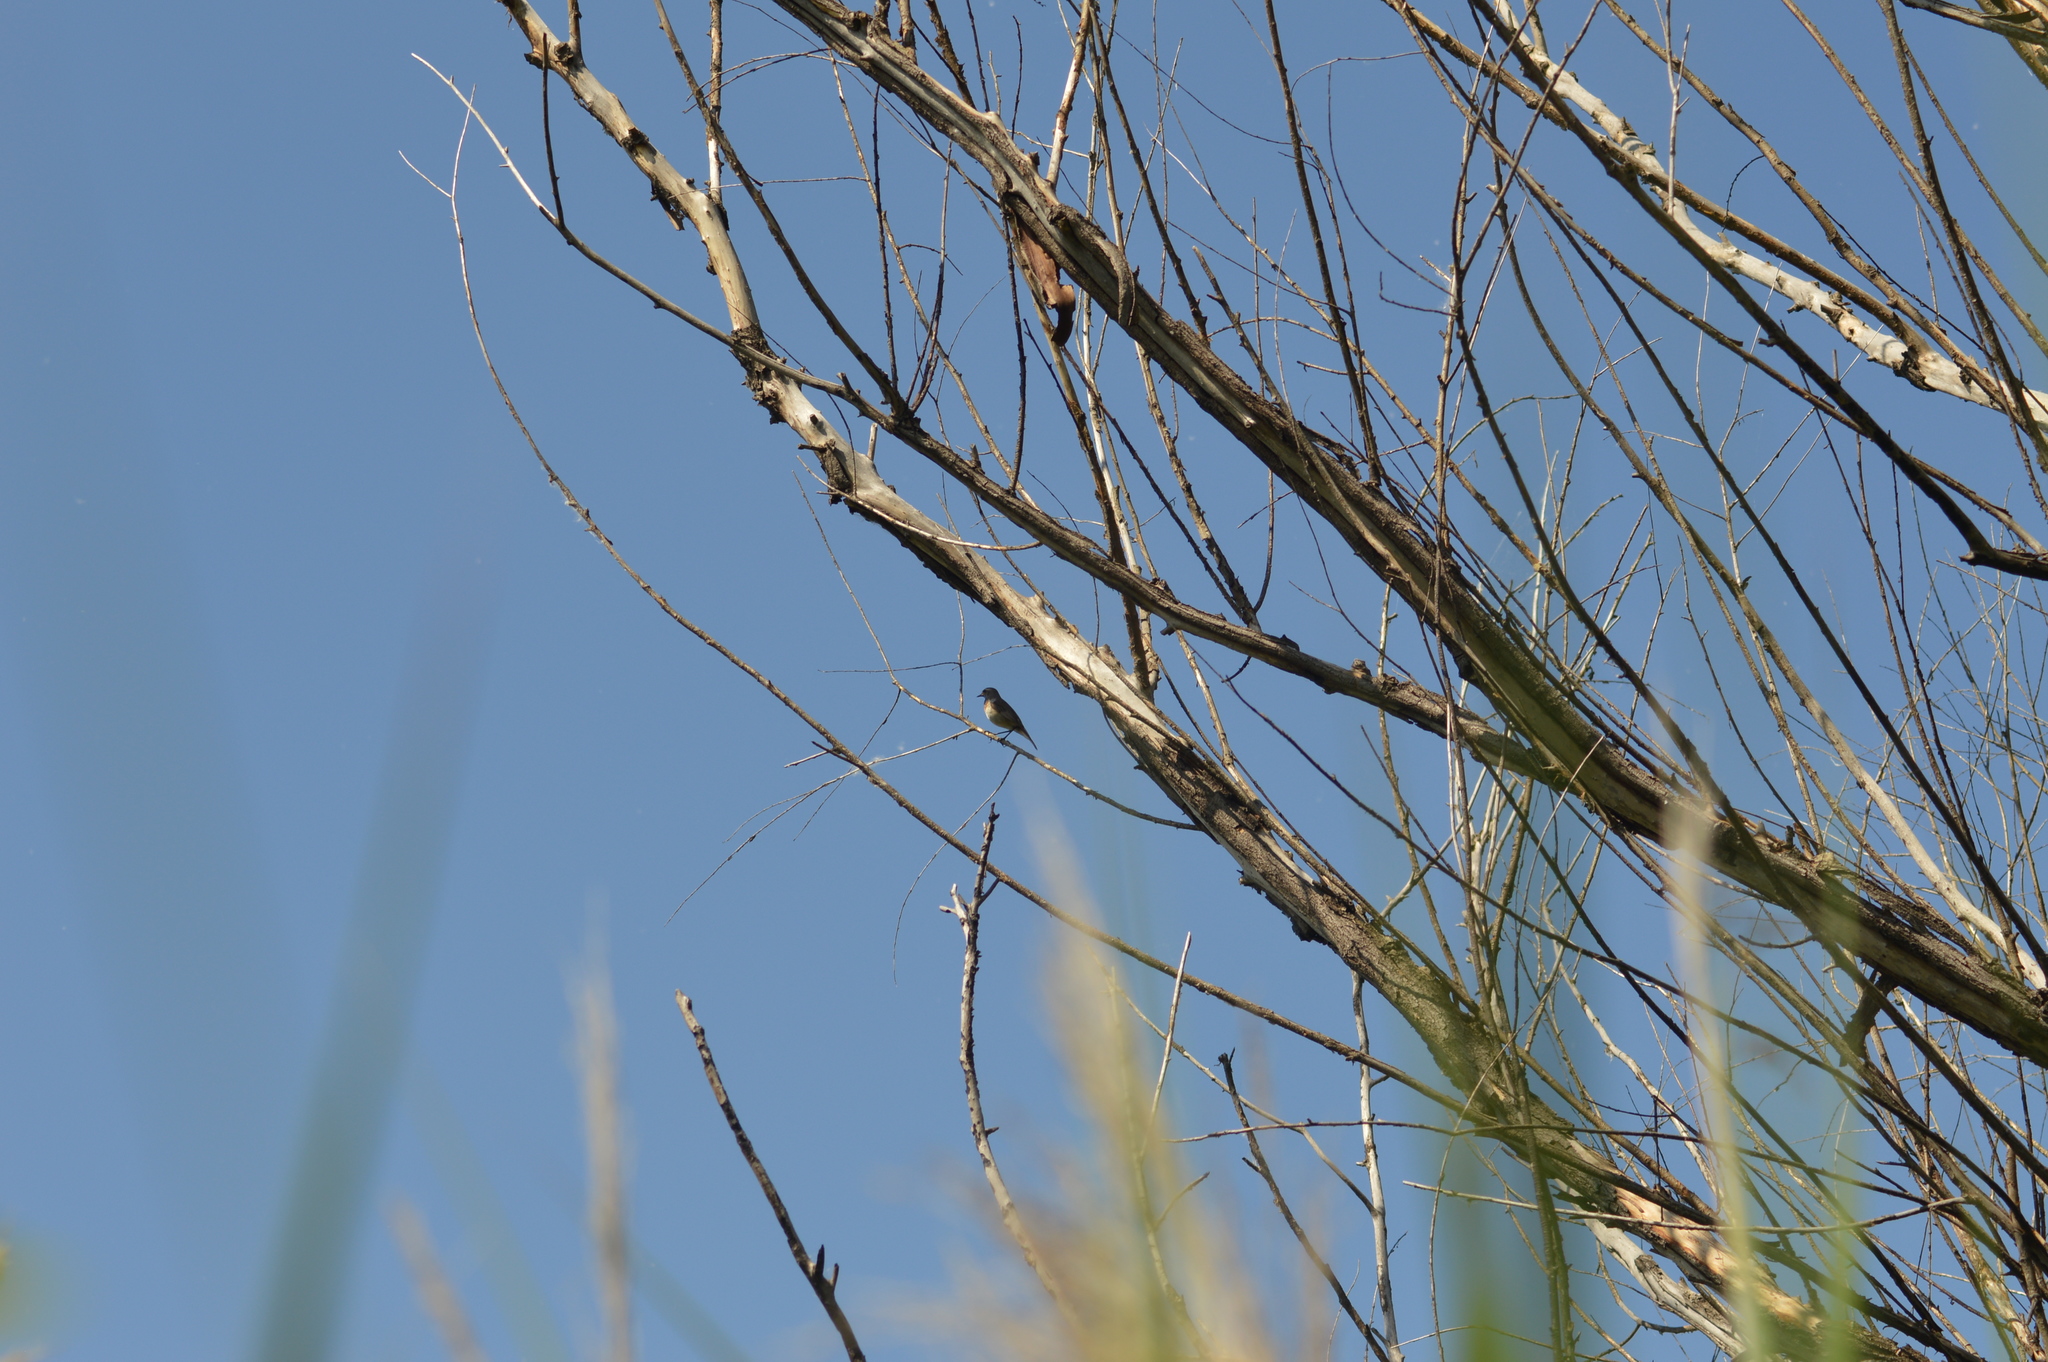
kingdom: Animalia
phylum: Chordata
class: Aves
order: Passeriformes
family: Muscicapidae
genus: Luscinia
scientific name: Luscinia svecica
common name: Bluethroat
